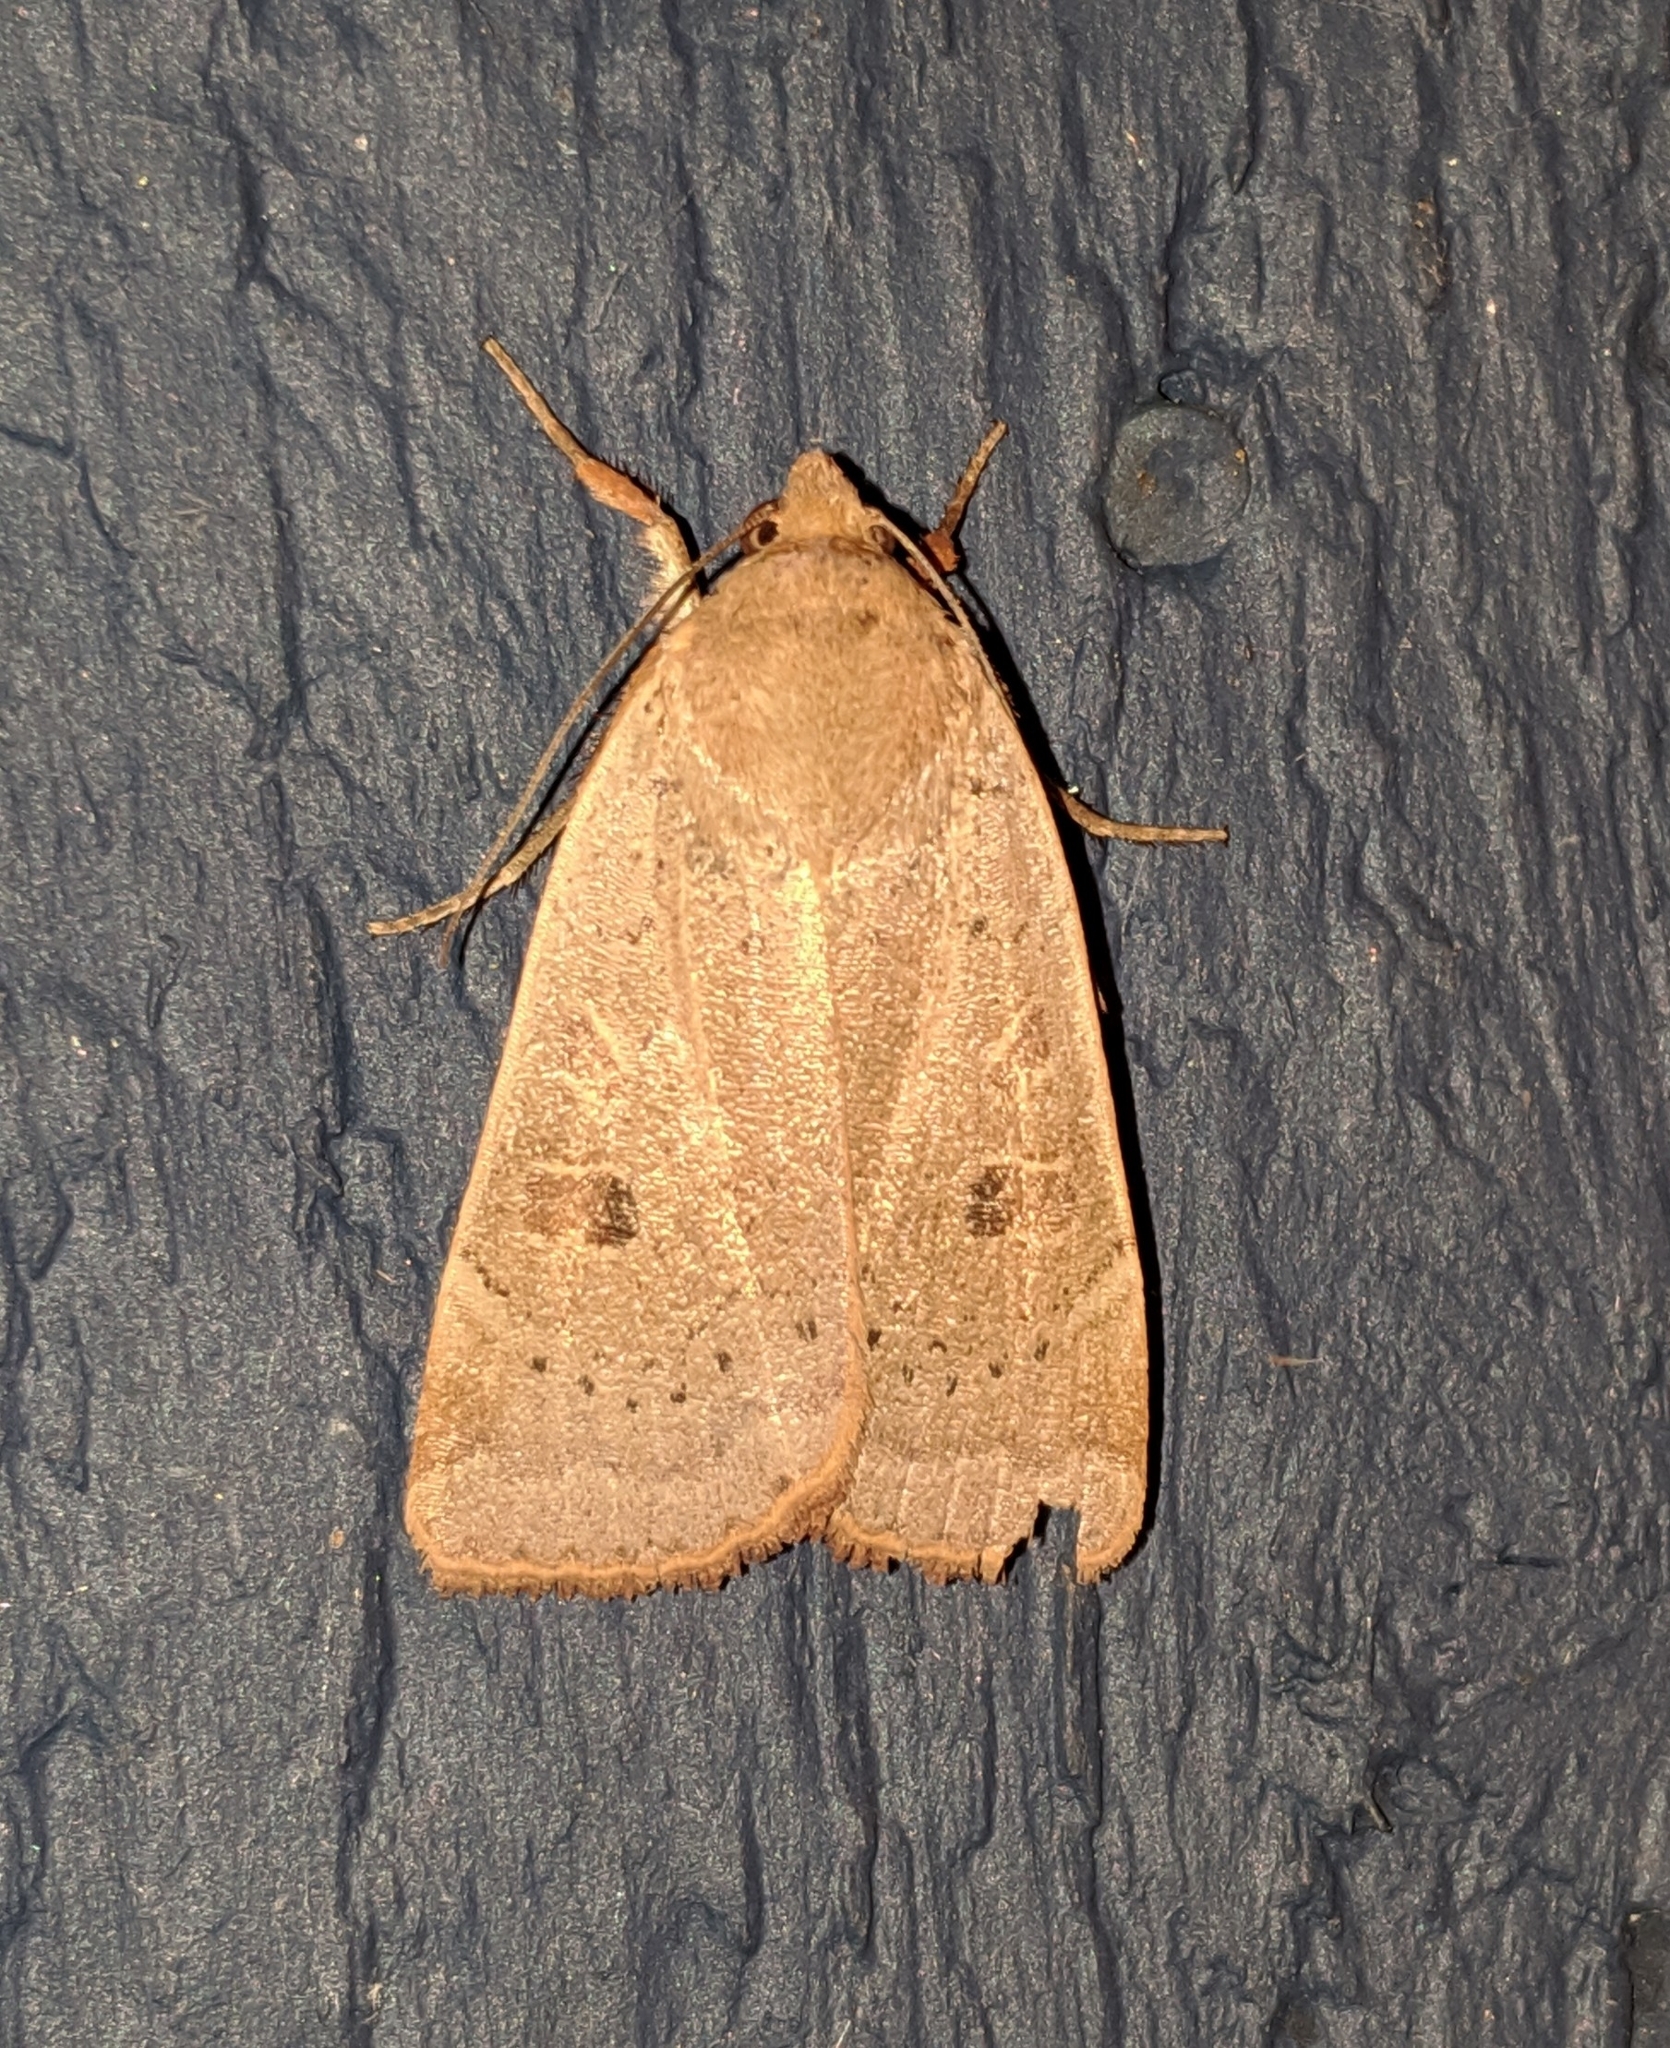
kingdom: Animalia
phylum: Arthropoda
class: Insecta
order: Lepidoptera
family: Noctuidae
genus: Noctua
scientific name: Noctua comes
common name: Lesser yellow underwing
